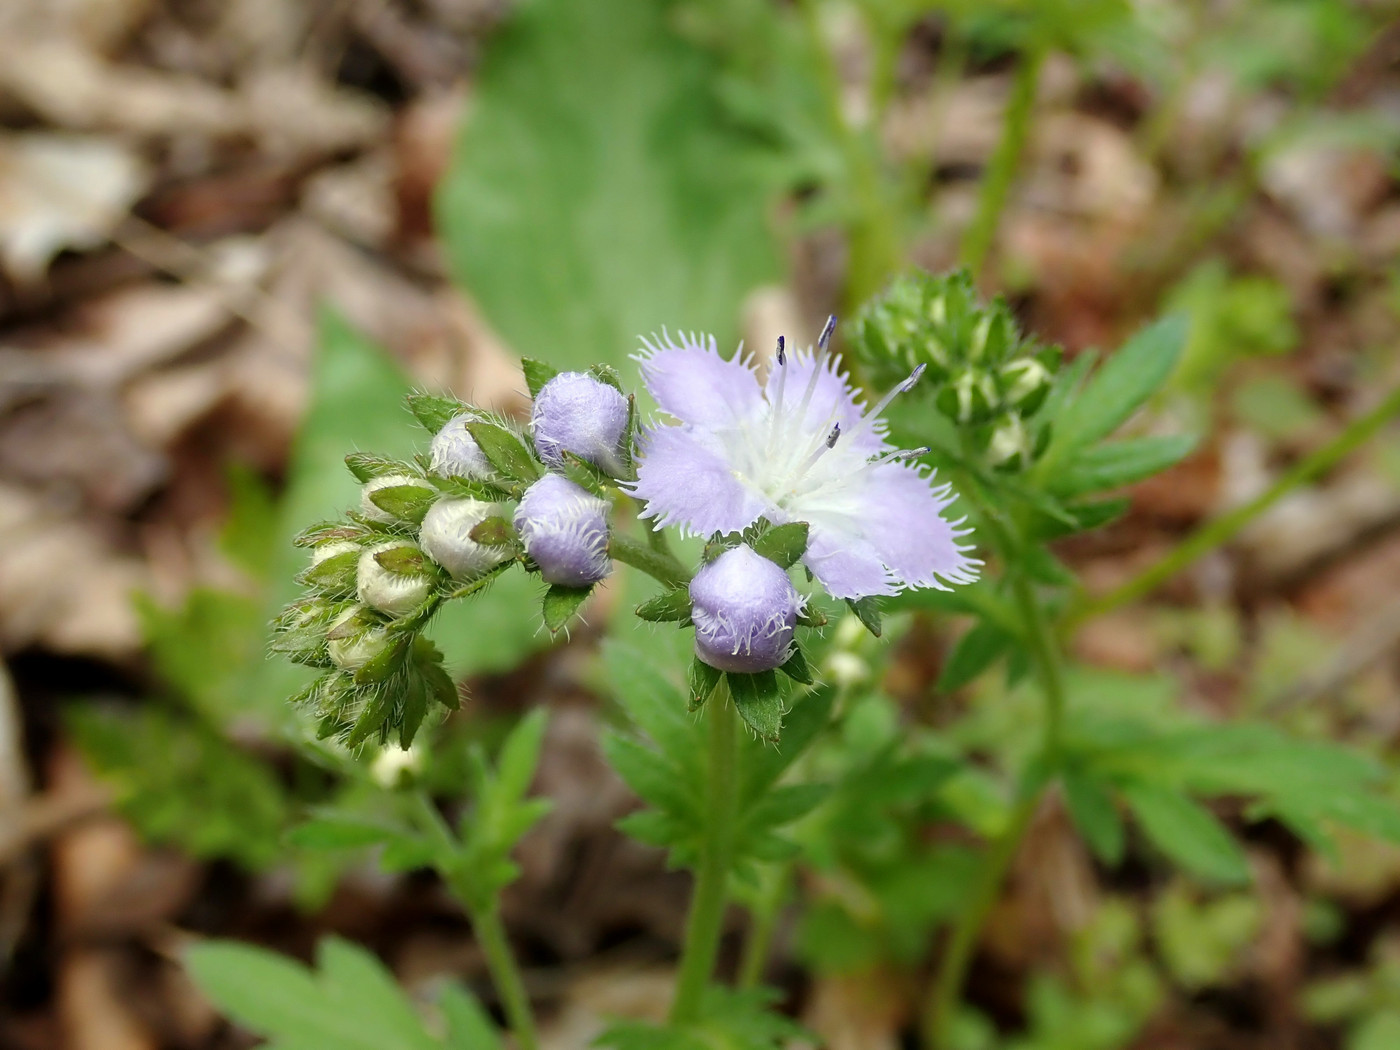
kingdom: Plantae
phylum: Tracheophyta
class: Magnoliopsida
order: Boraginales
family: Hydrophyllaceae
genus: Phacelia
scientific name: Phacelia purshii
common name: Miami-mist
